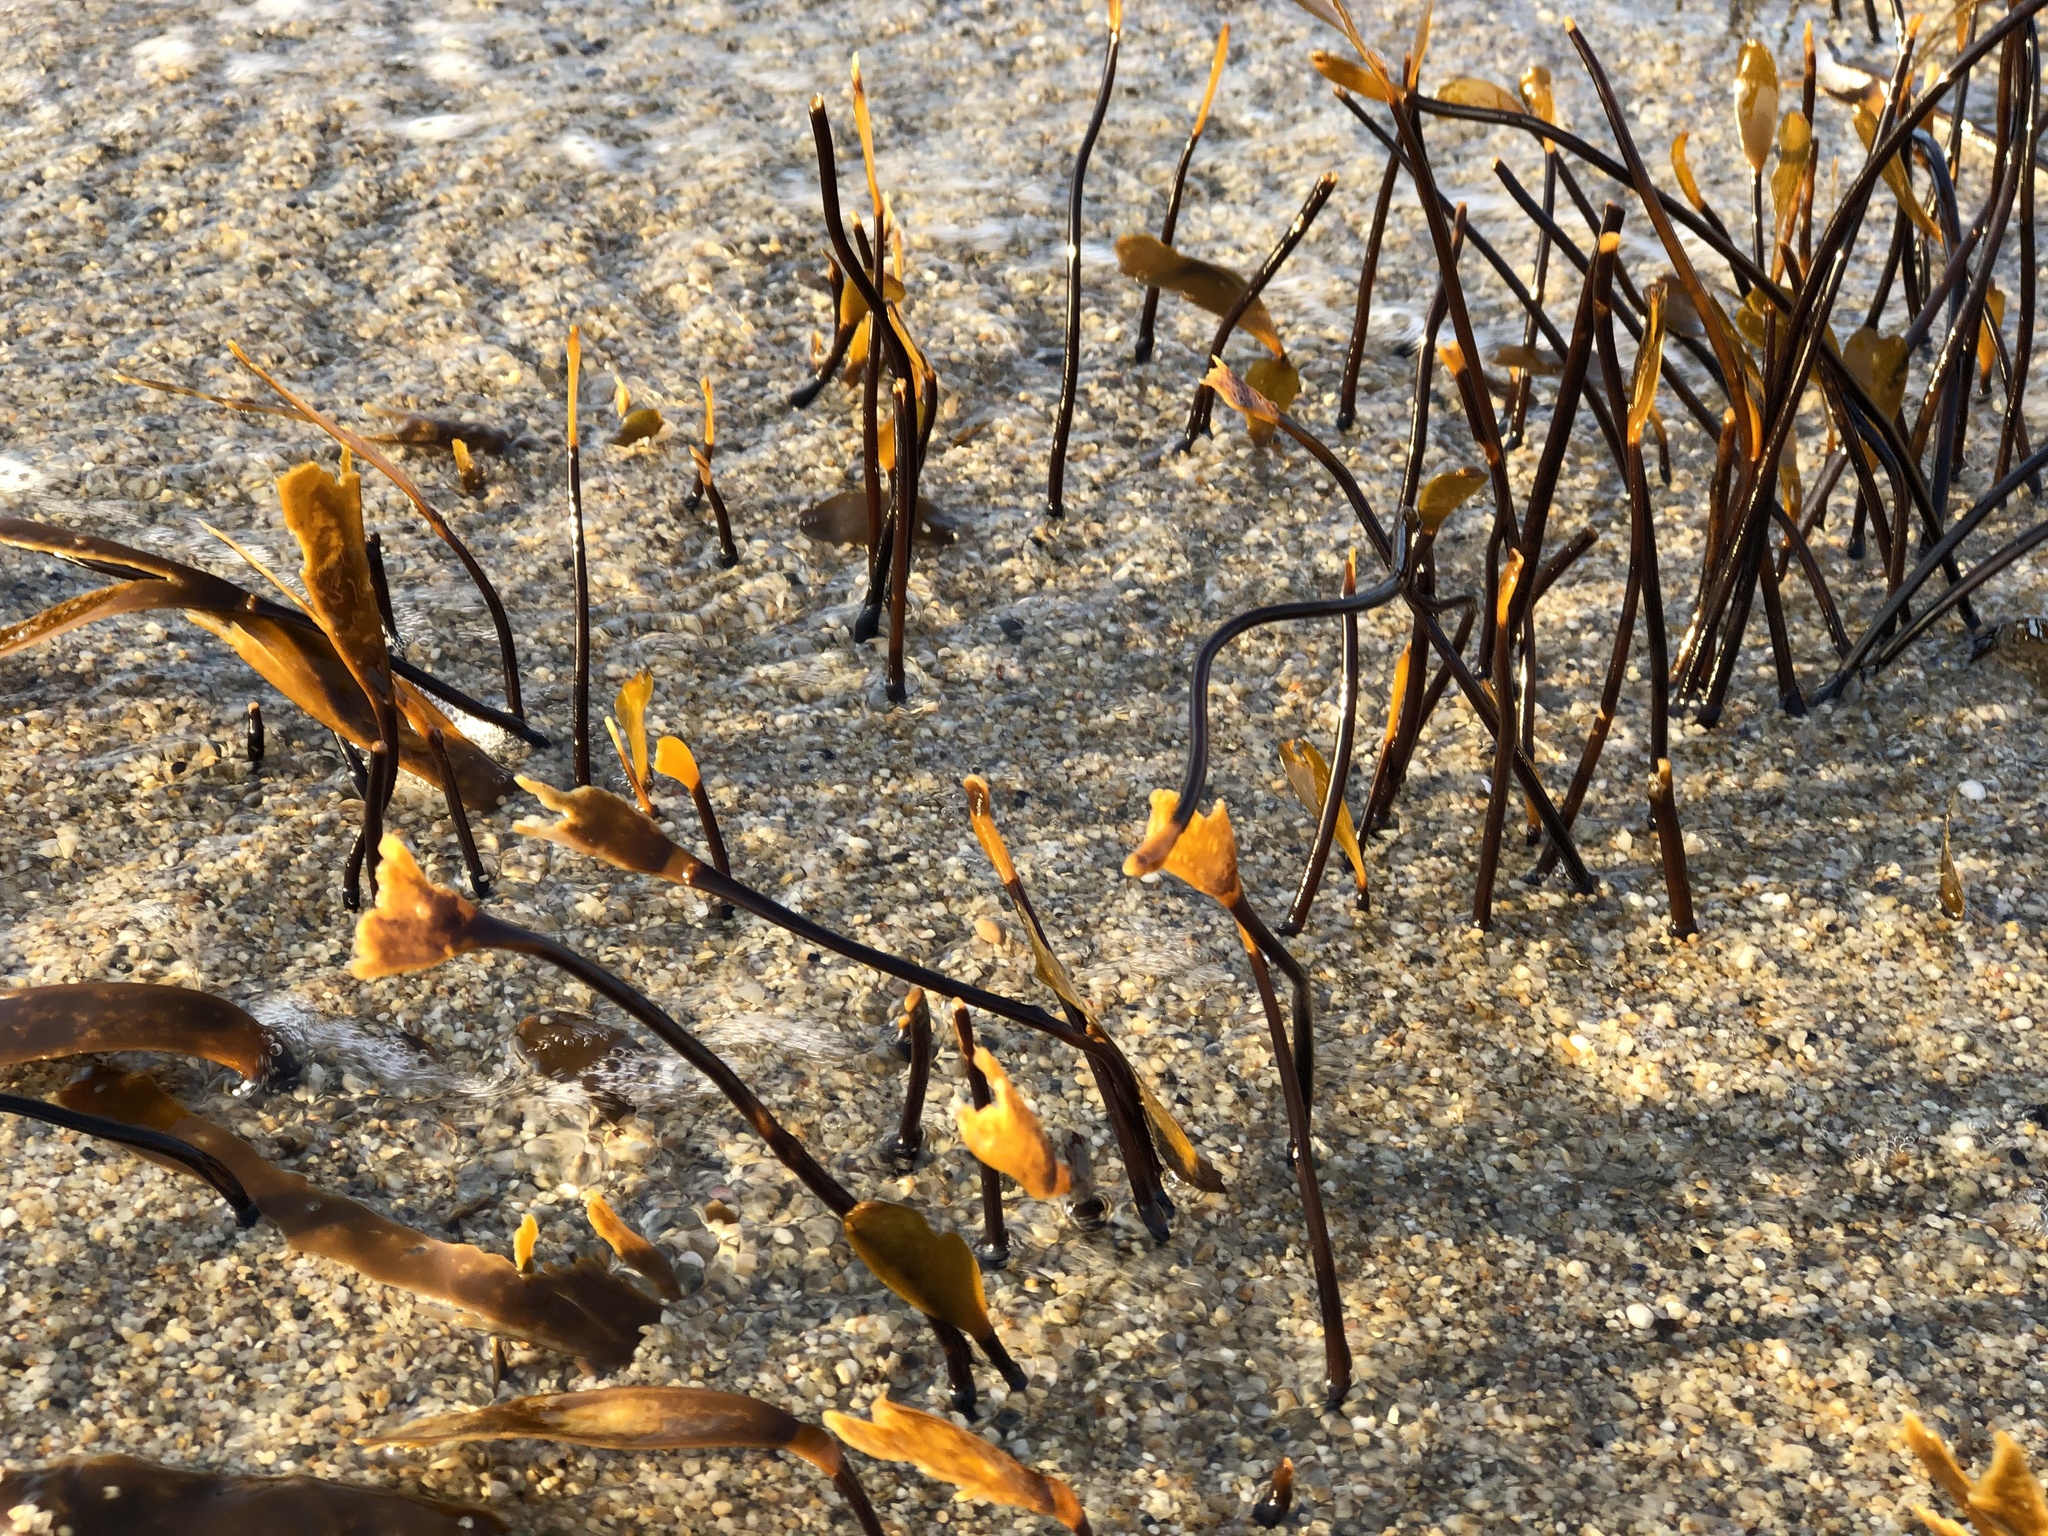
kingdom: Chromista
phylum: Ochrophyta
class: Phaeophyceae
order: Laminariales
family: Laminariaceae
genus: Laminaria
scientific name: Laminaria sinclairii
